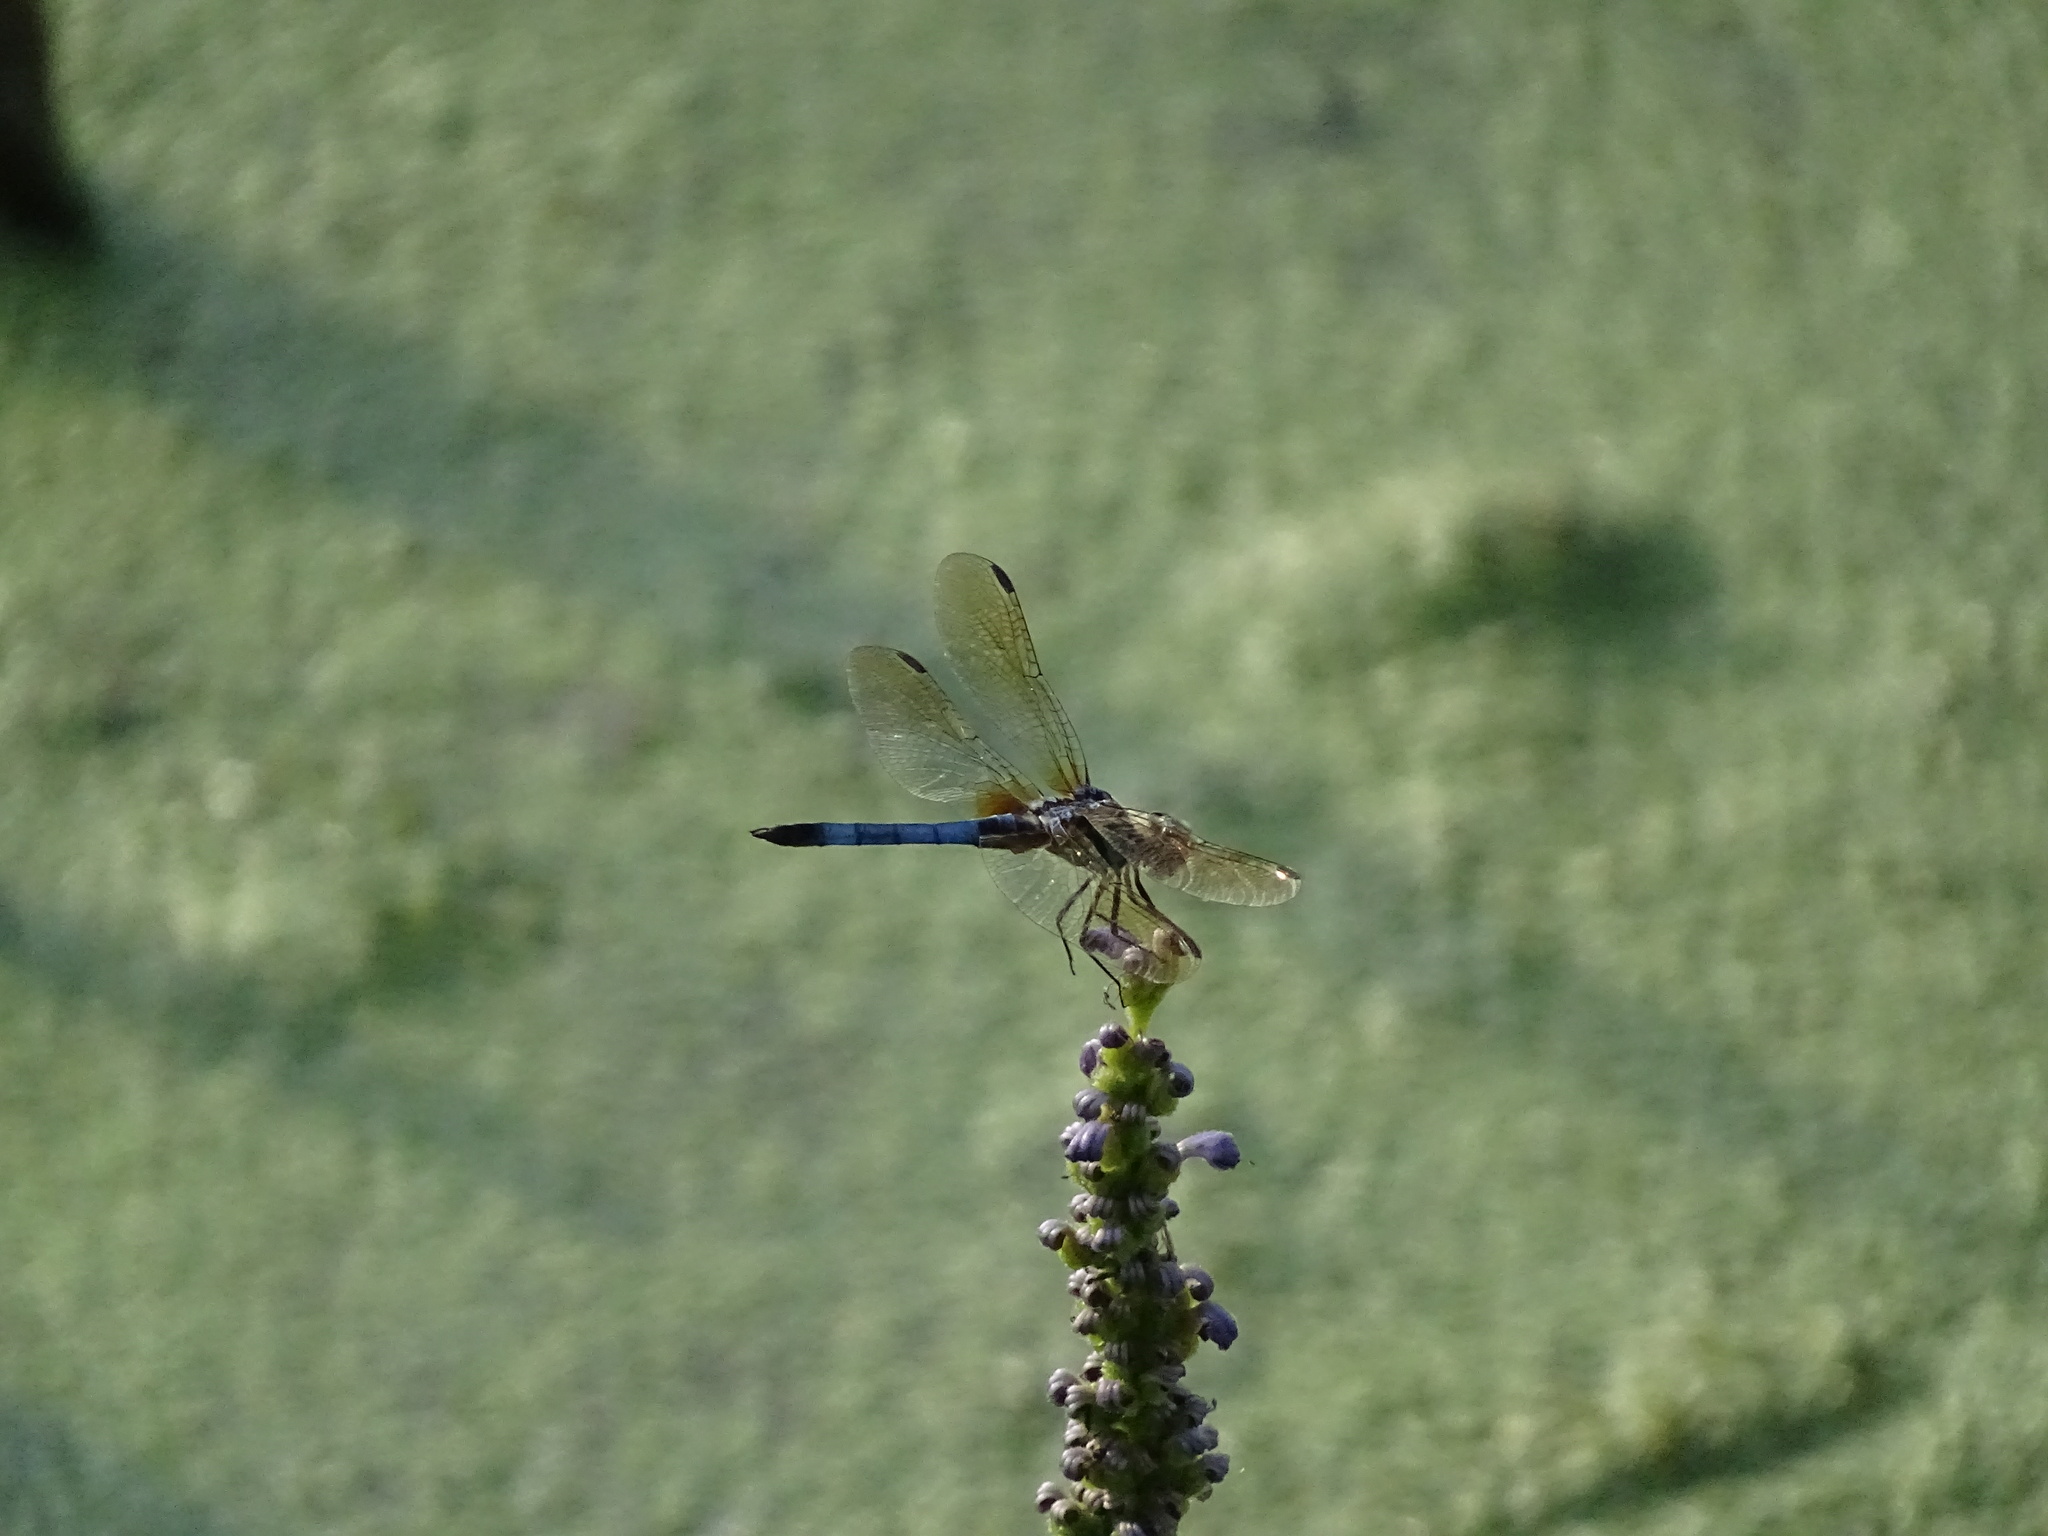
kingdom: Animalia
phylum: Arthropoda
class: Insecta
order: Odonata
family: Libellulidae
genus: Pachydiplax
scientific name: Pachydiplax longipennis
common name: Blue dasher
